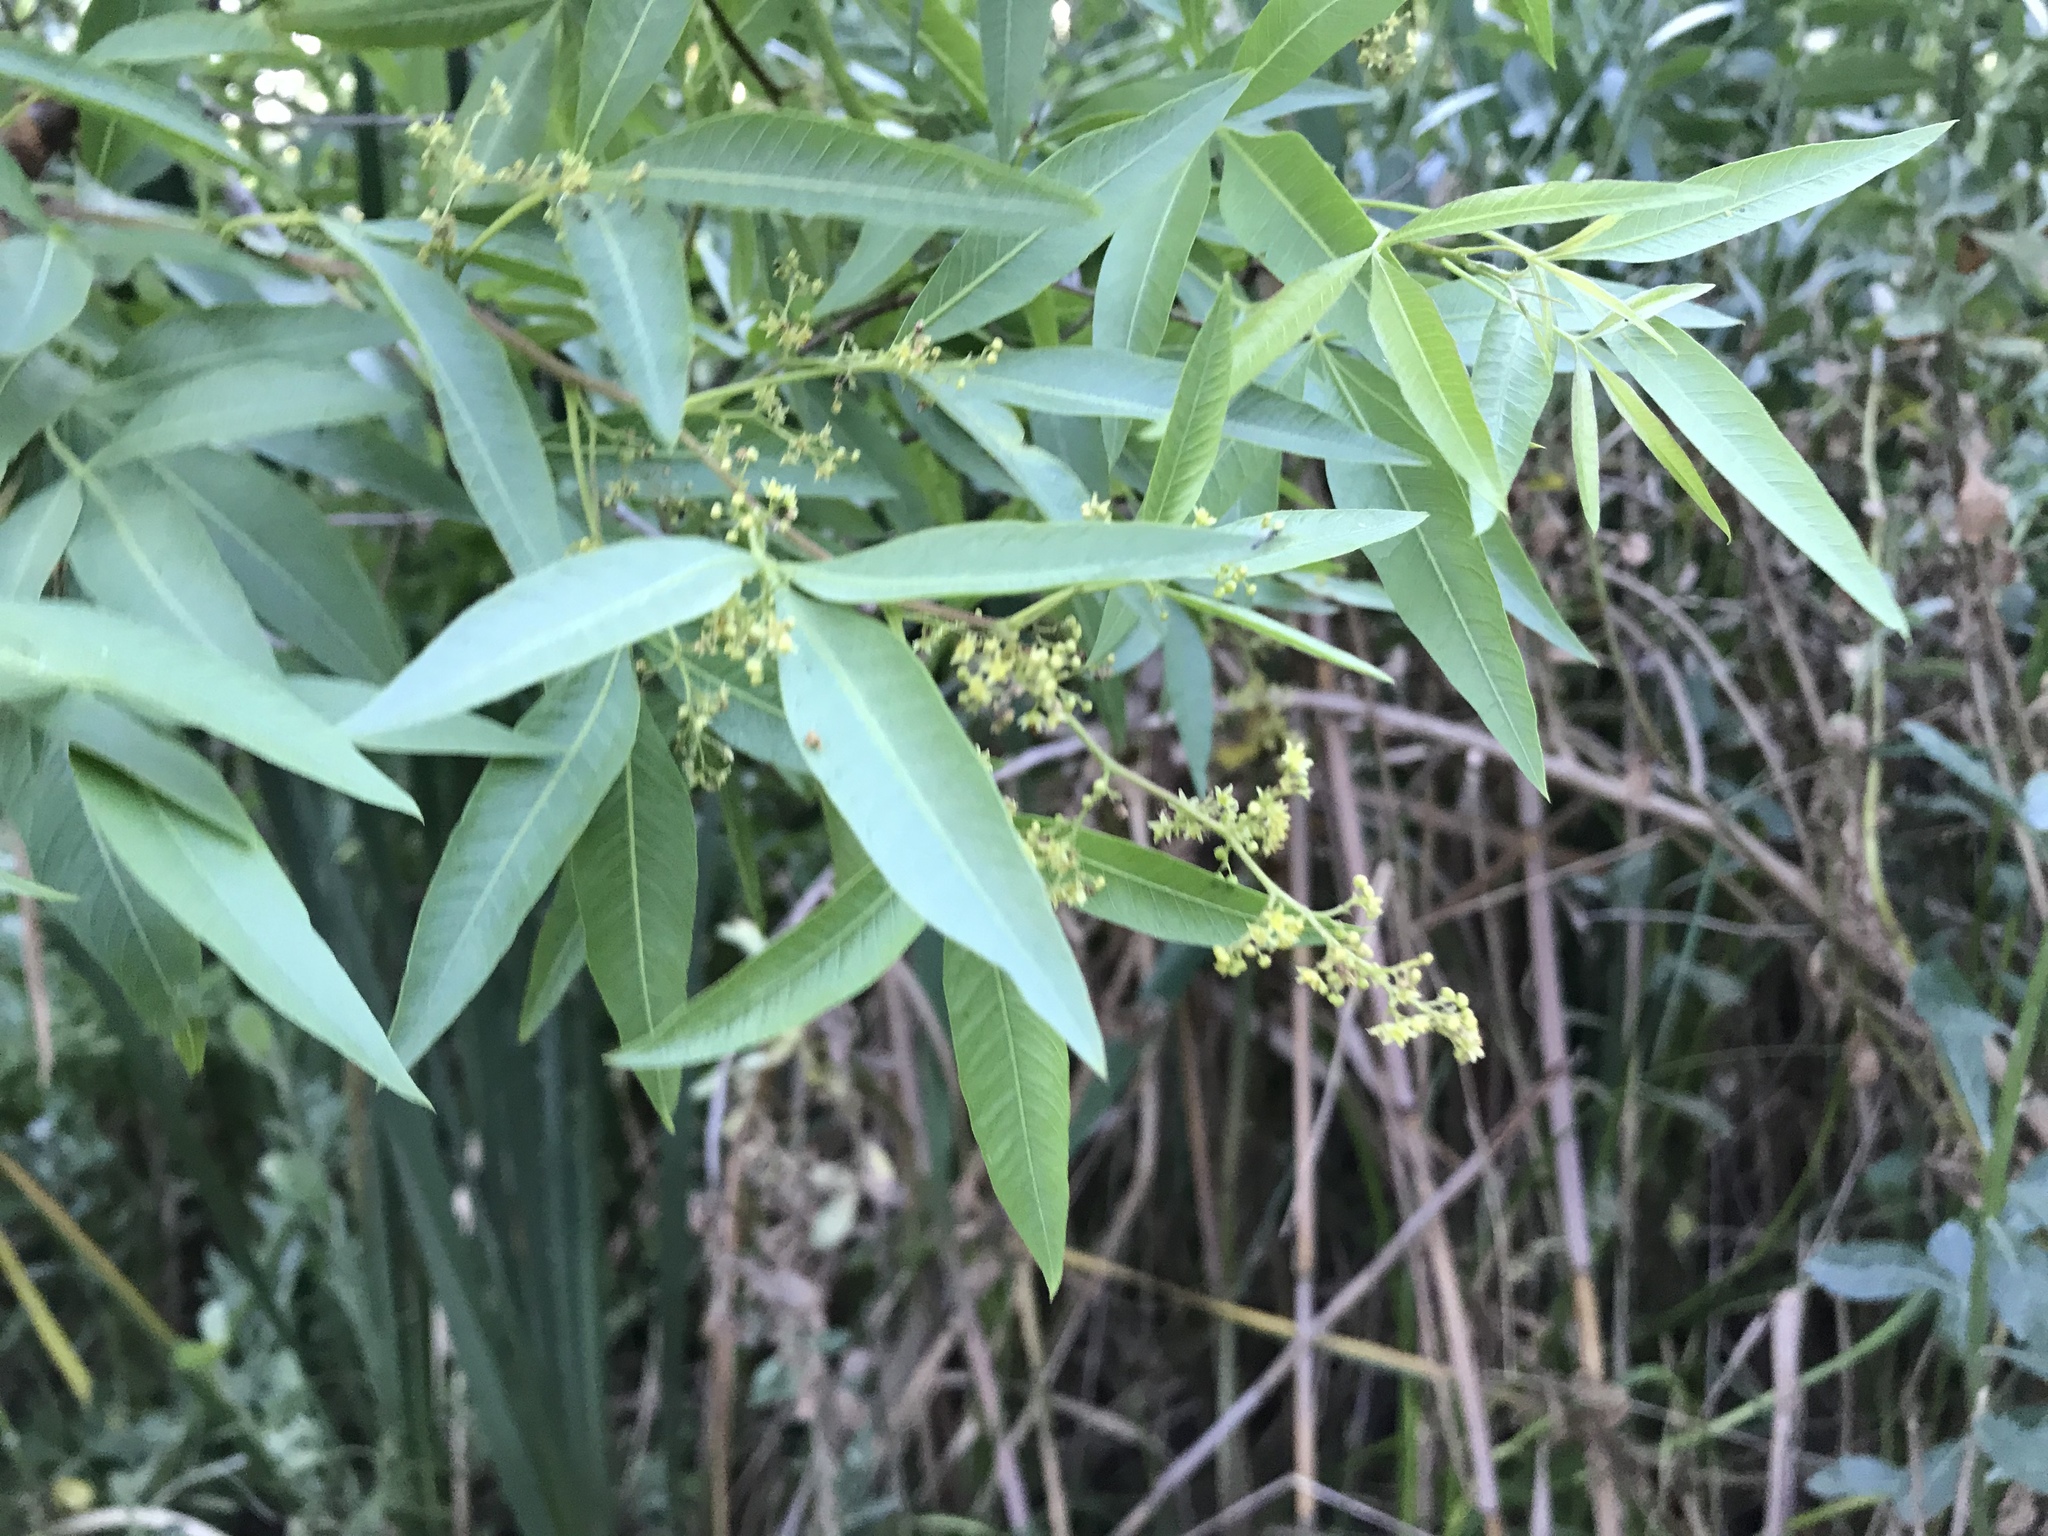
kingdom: Plantae
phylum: Tracheophyta
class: Magnoliopsida
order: Sapindales
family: Anacardiaceae
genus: Searsia
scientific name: Searsia pendulina
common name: White karee
